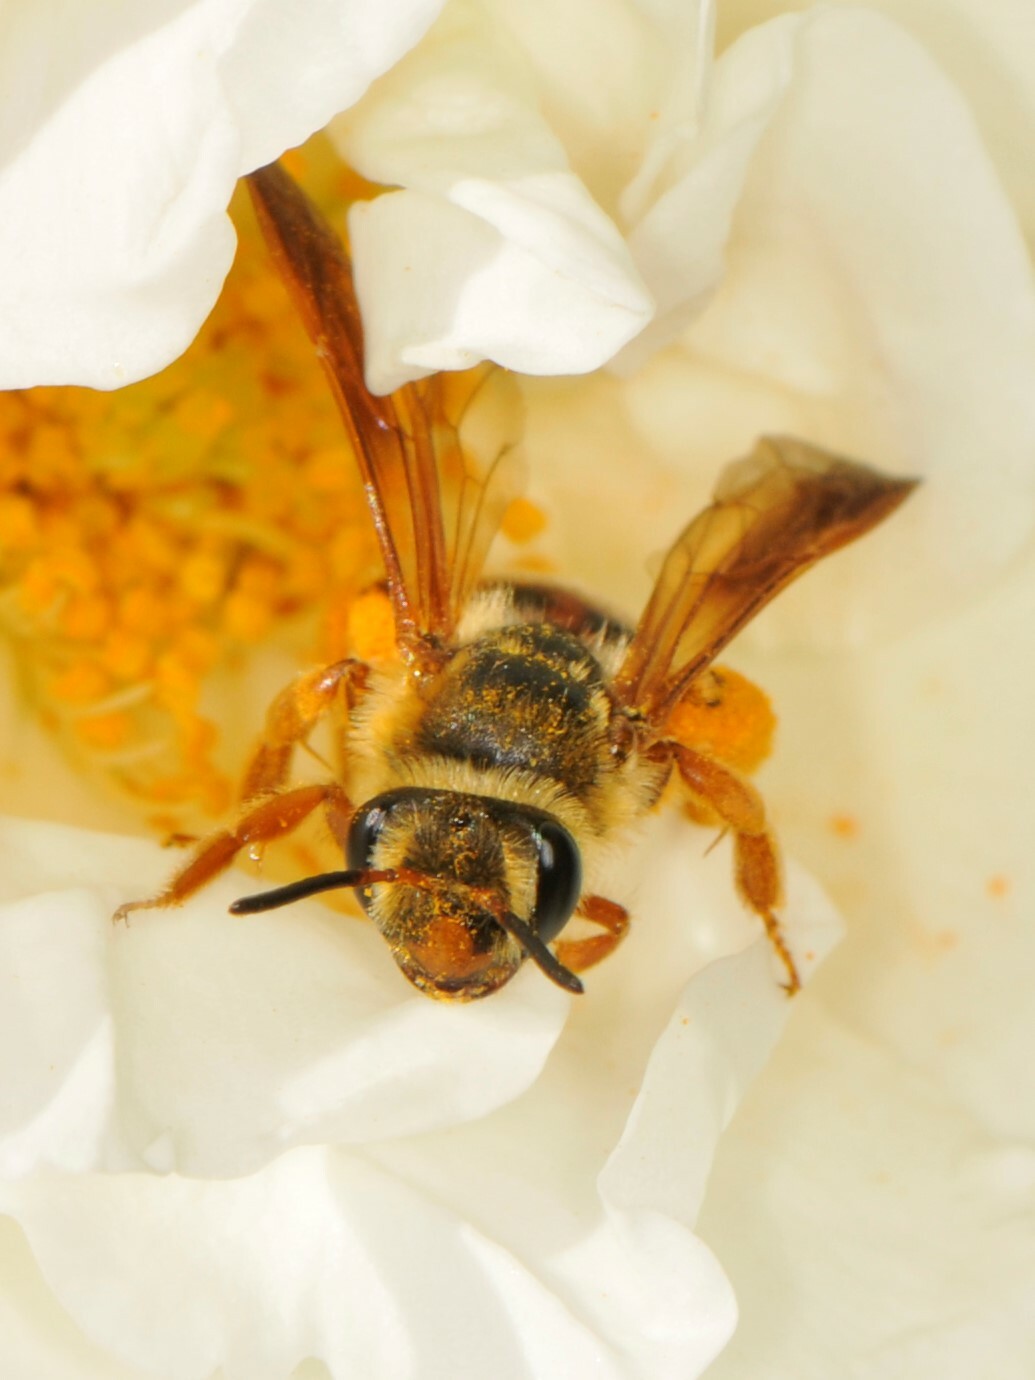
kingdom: Animalia
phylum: Arthropoda
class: Insecta
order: Hymenoptera
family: Andrenidae
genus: Andrena
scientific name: Andrena prunorum
